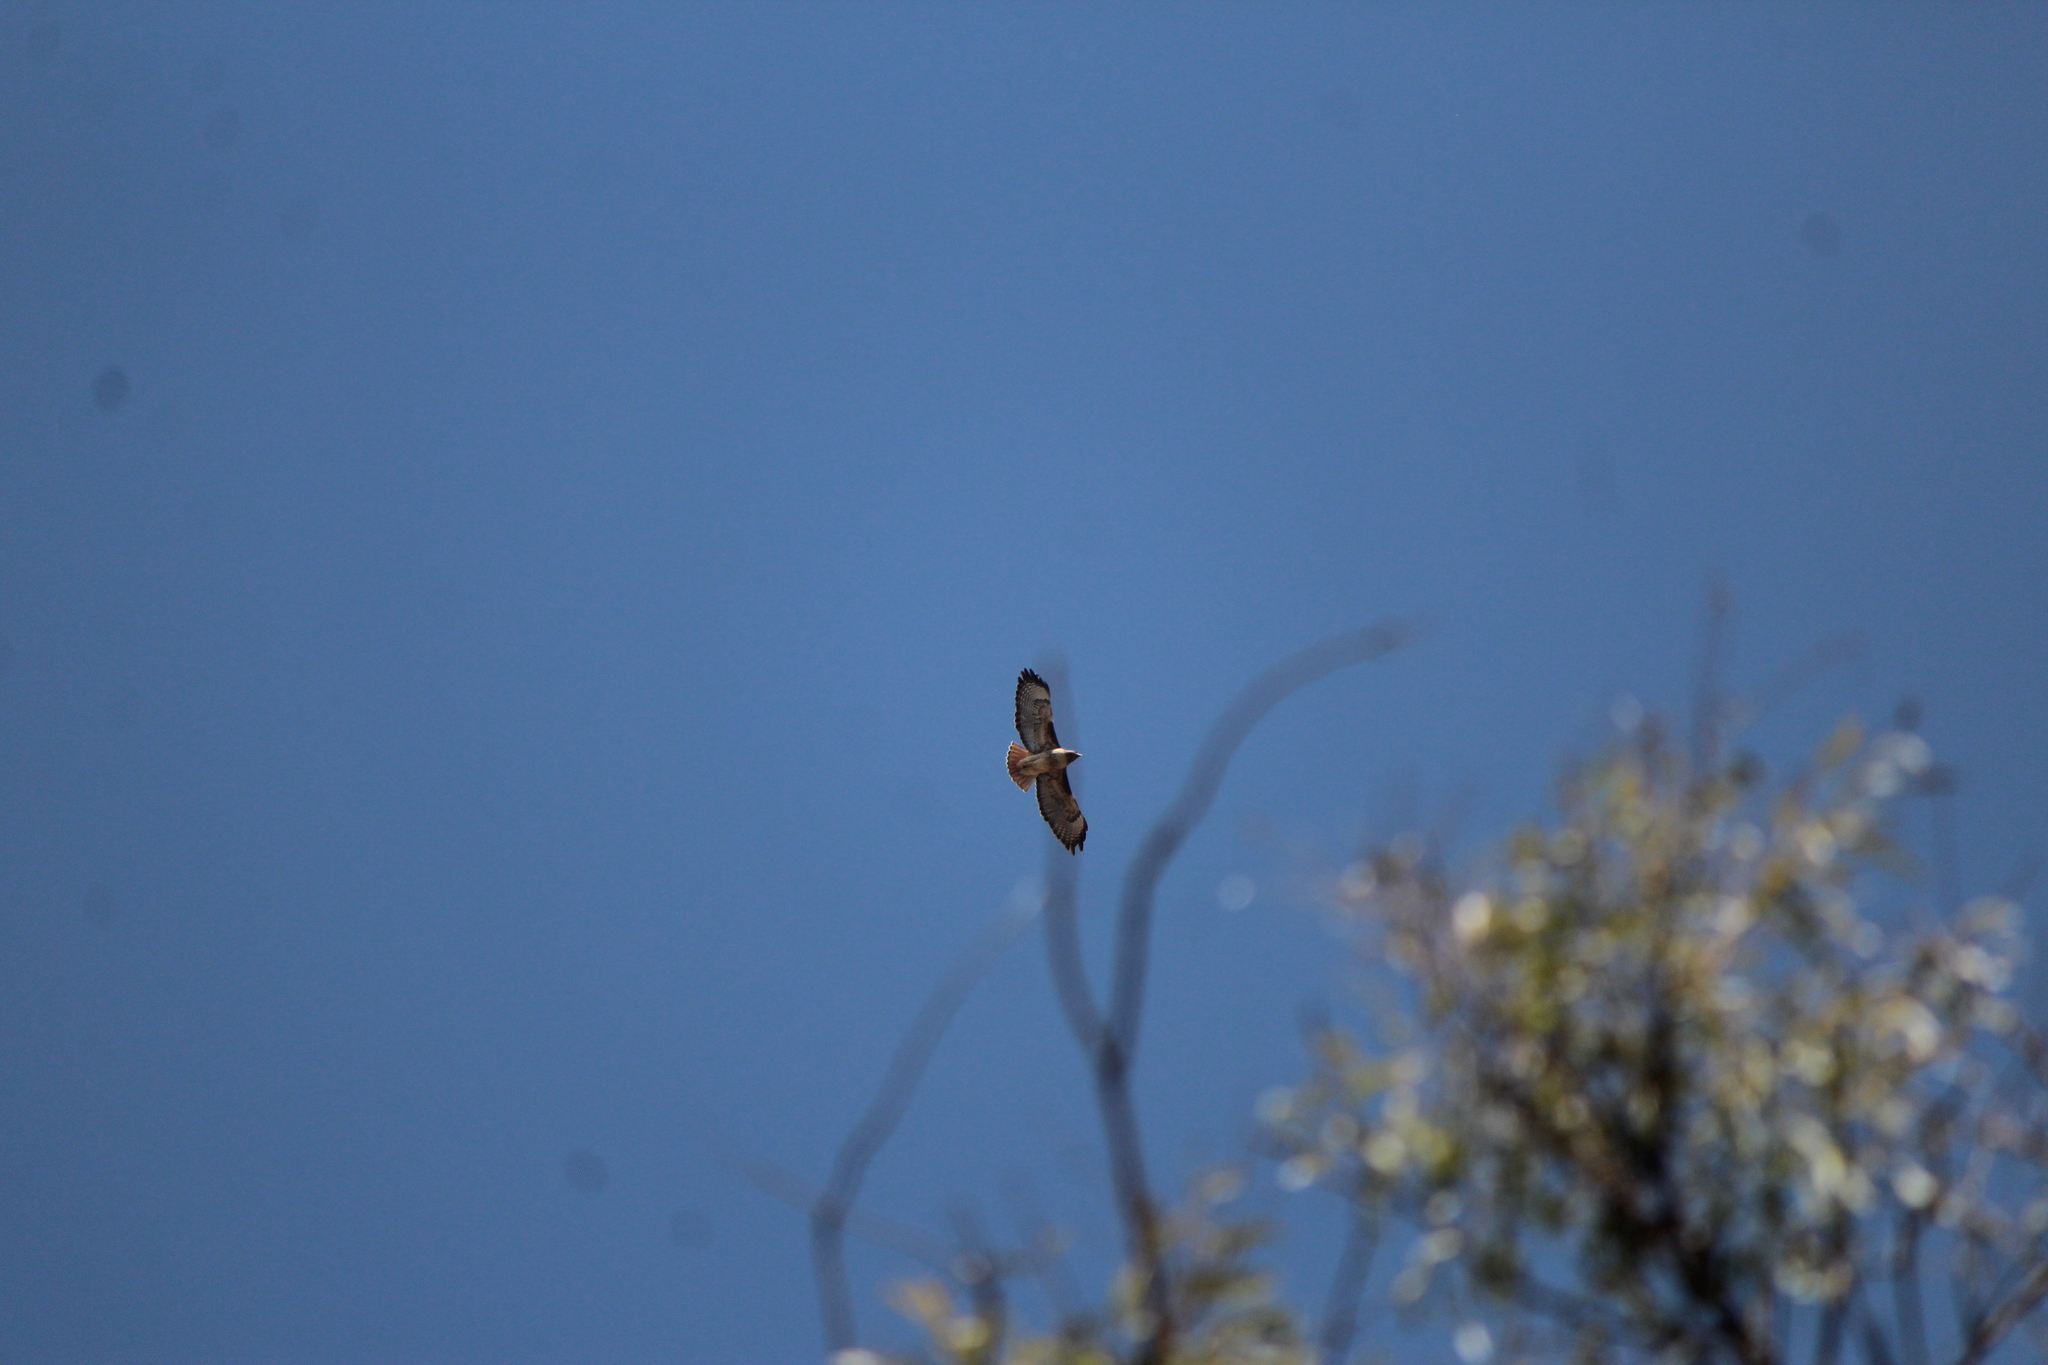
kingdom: Animalia
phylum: Chordata
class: Aves
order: Accipitriformes
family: Accipitridae
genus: Buteo
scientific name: Buteo jamaicensis
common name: Red-tailed hawk
